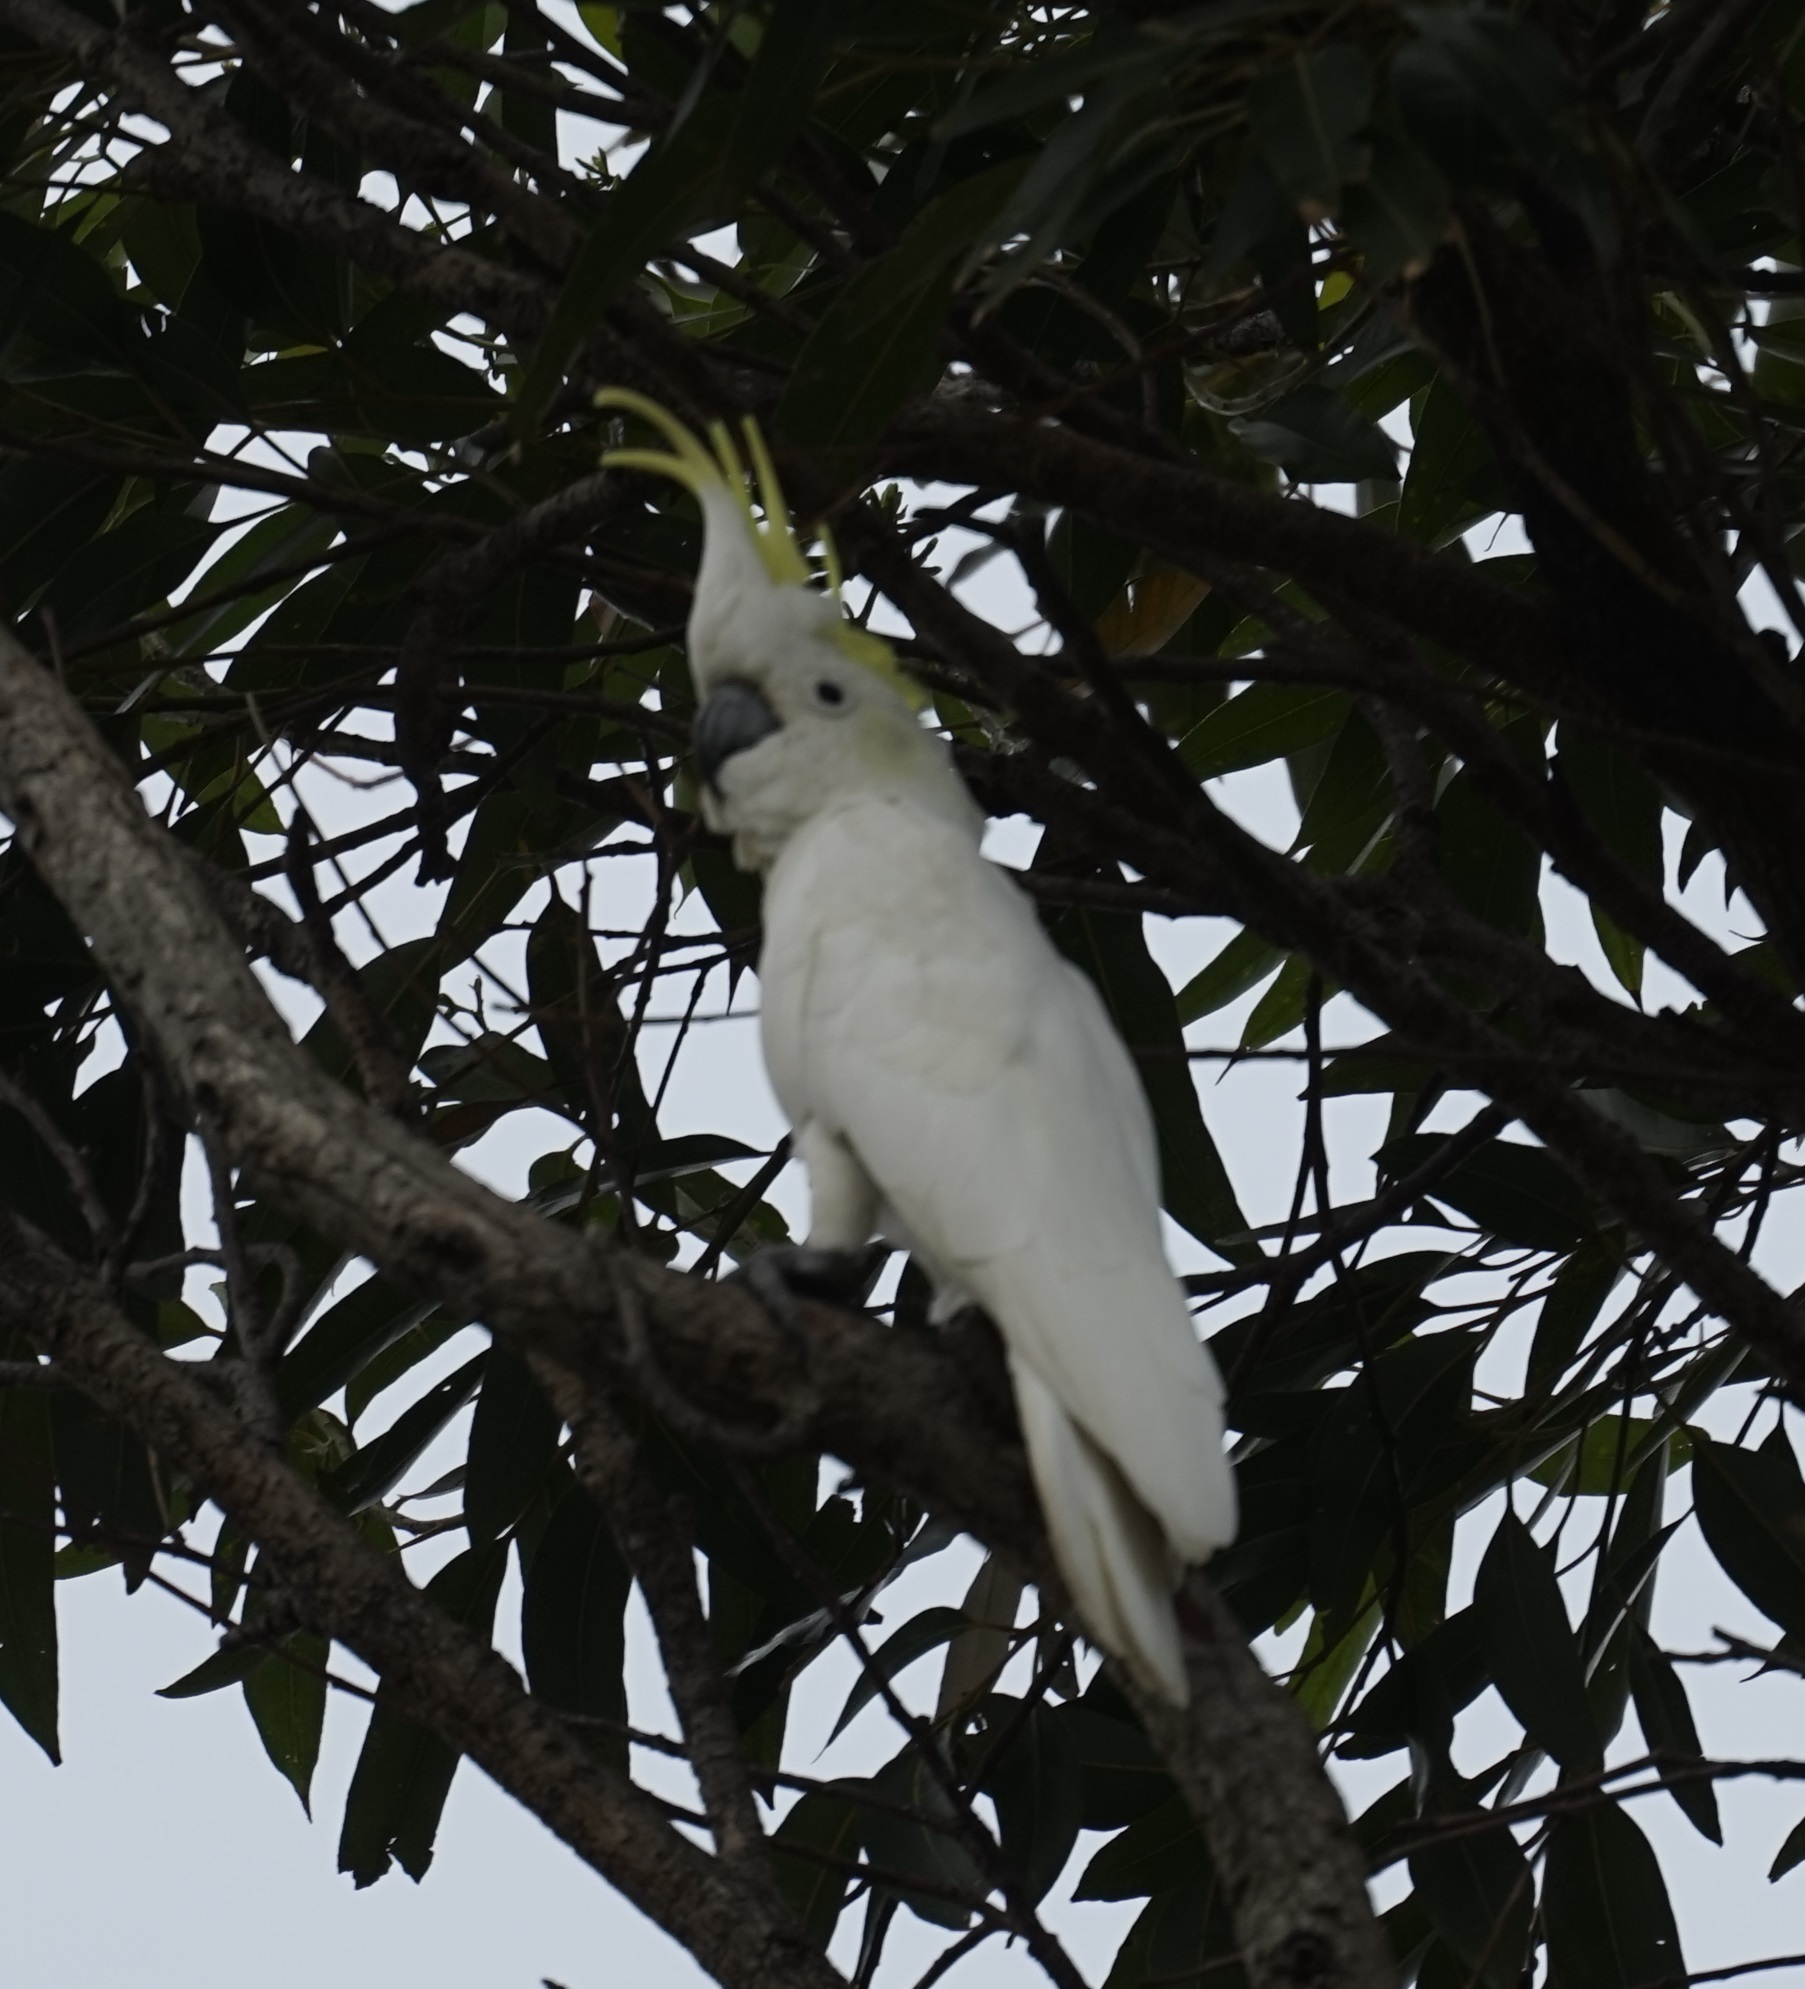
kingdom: Animalia
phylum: Chordata
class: Aves
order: Psittaciformes
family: Psittacidae
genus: Cacatua
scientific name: Cacatua galerita
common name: Sulphur-crested cockatoo
